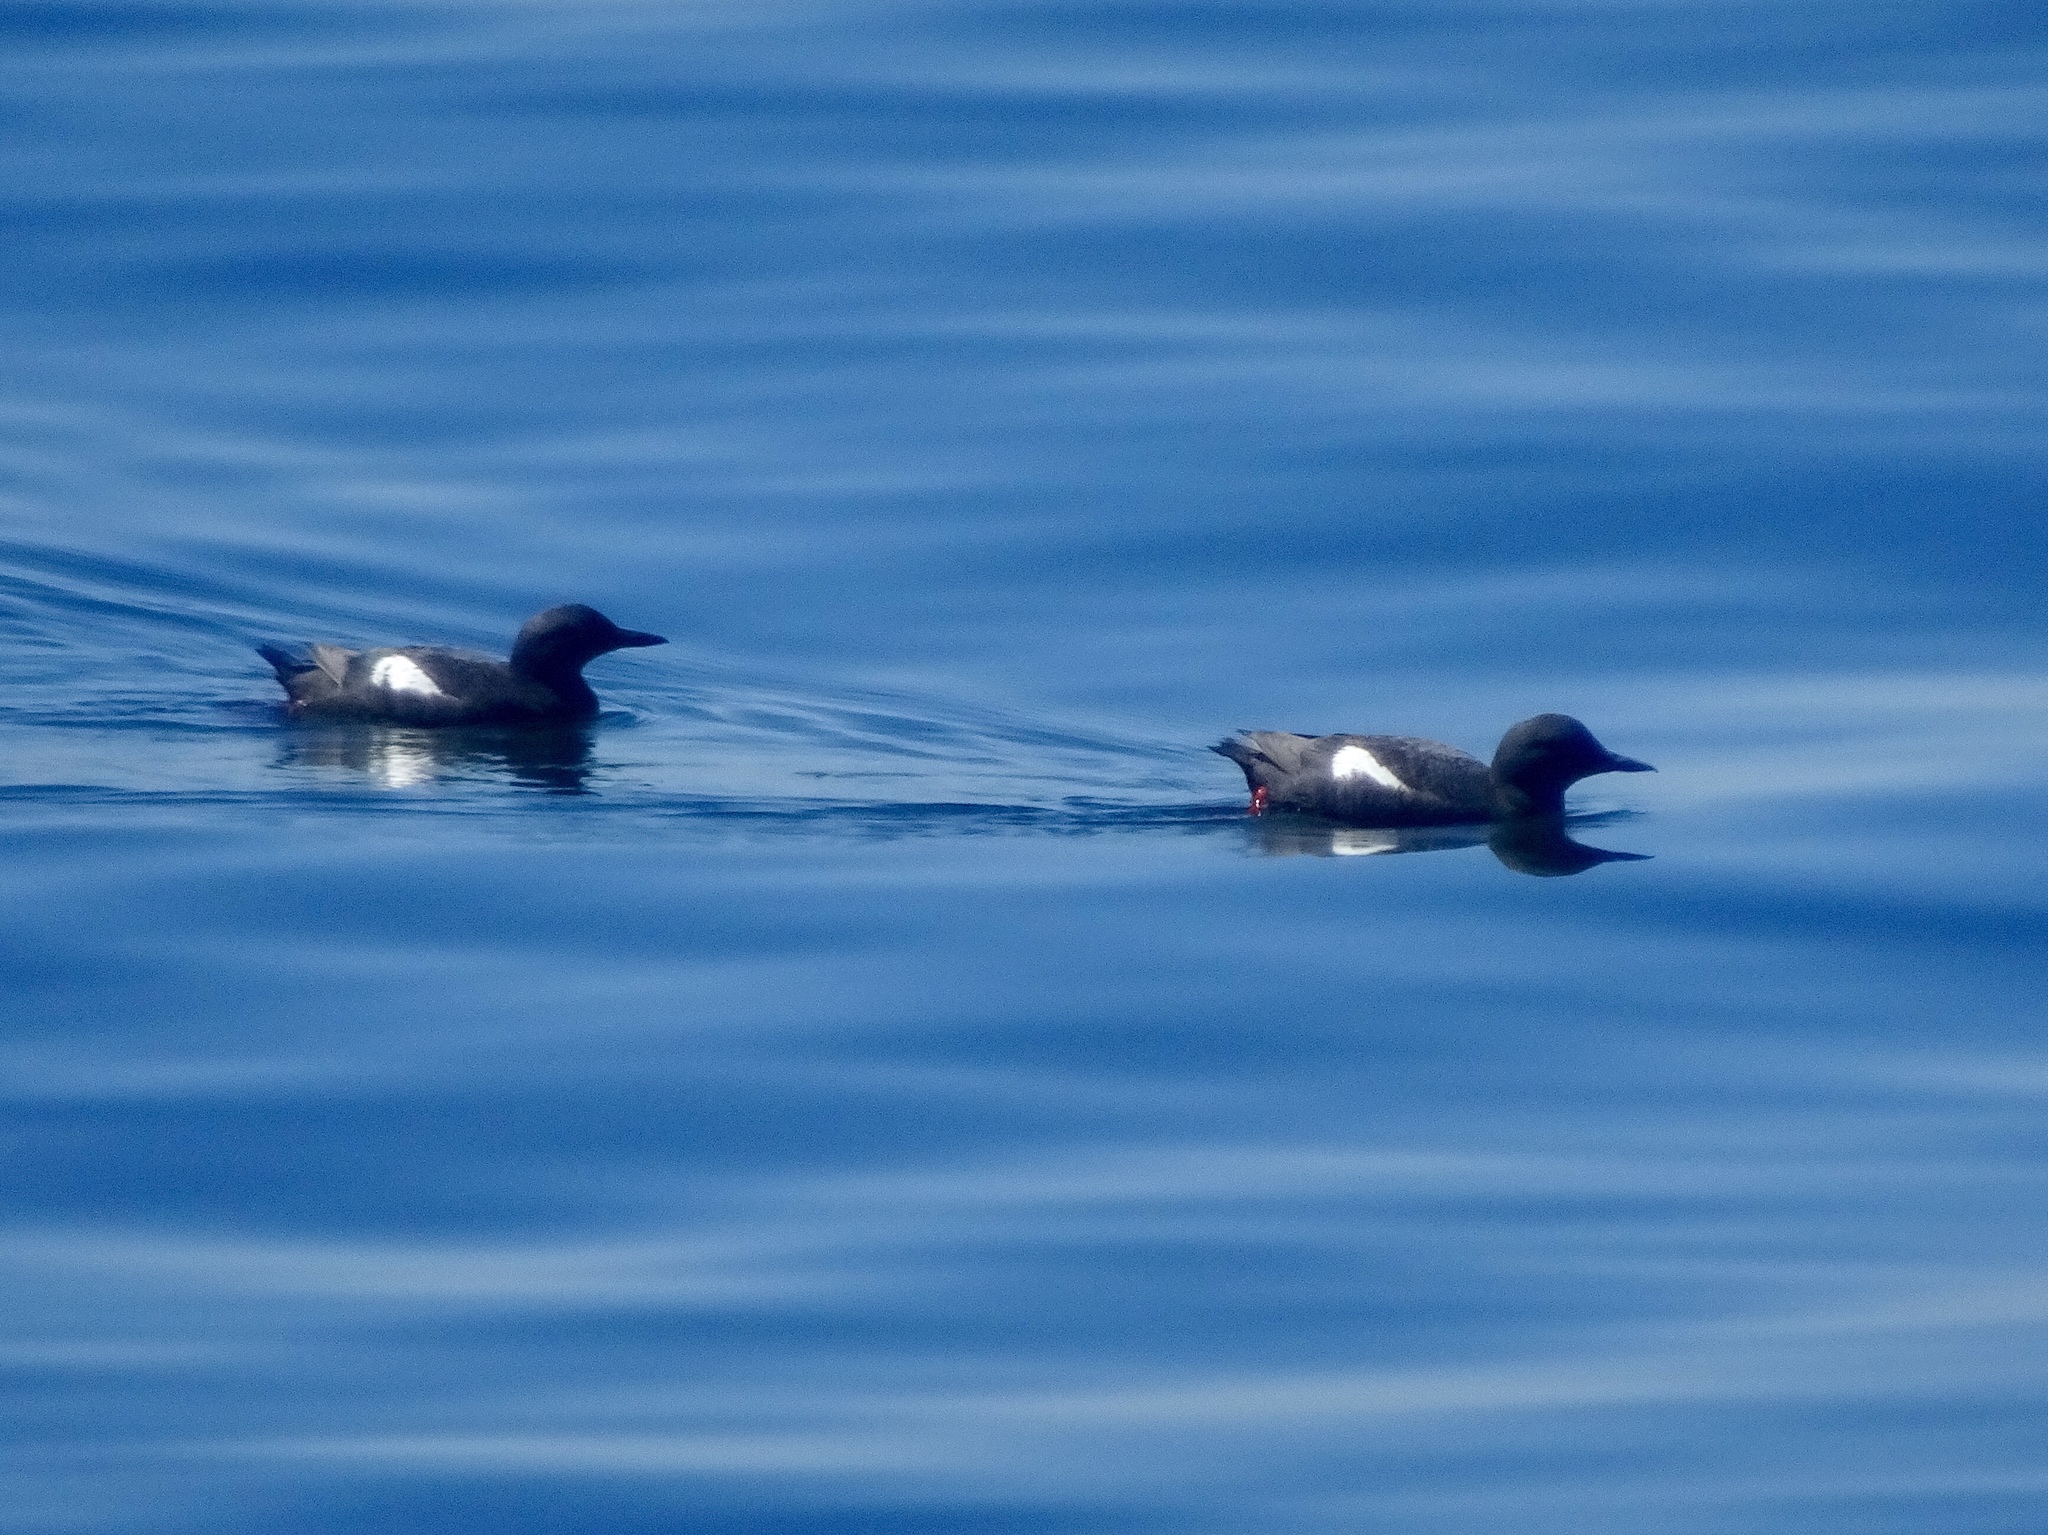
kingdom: Animalia
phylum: Chordata
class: Aves
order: Charadriiformes
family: Alcidae
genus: Cepphus
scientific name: Cepphus columba
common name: Pigeon guillemot
